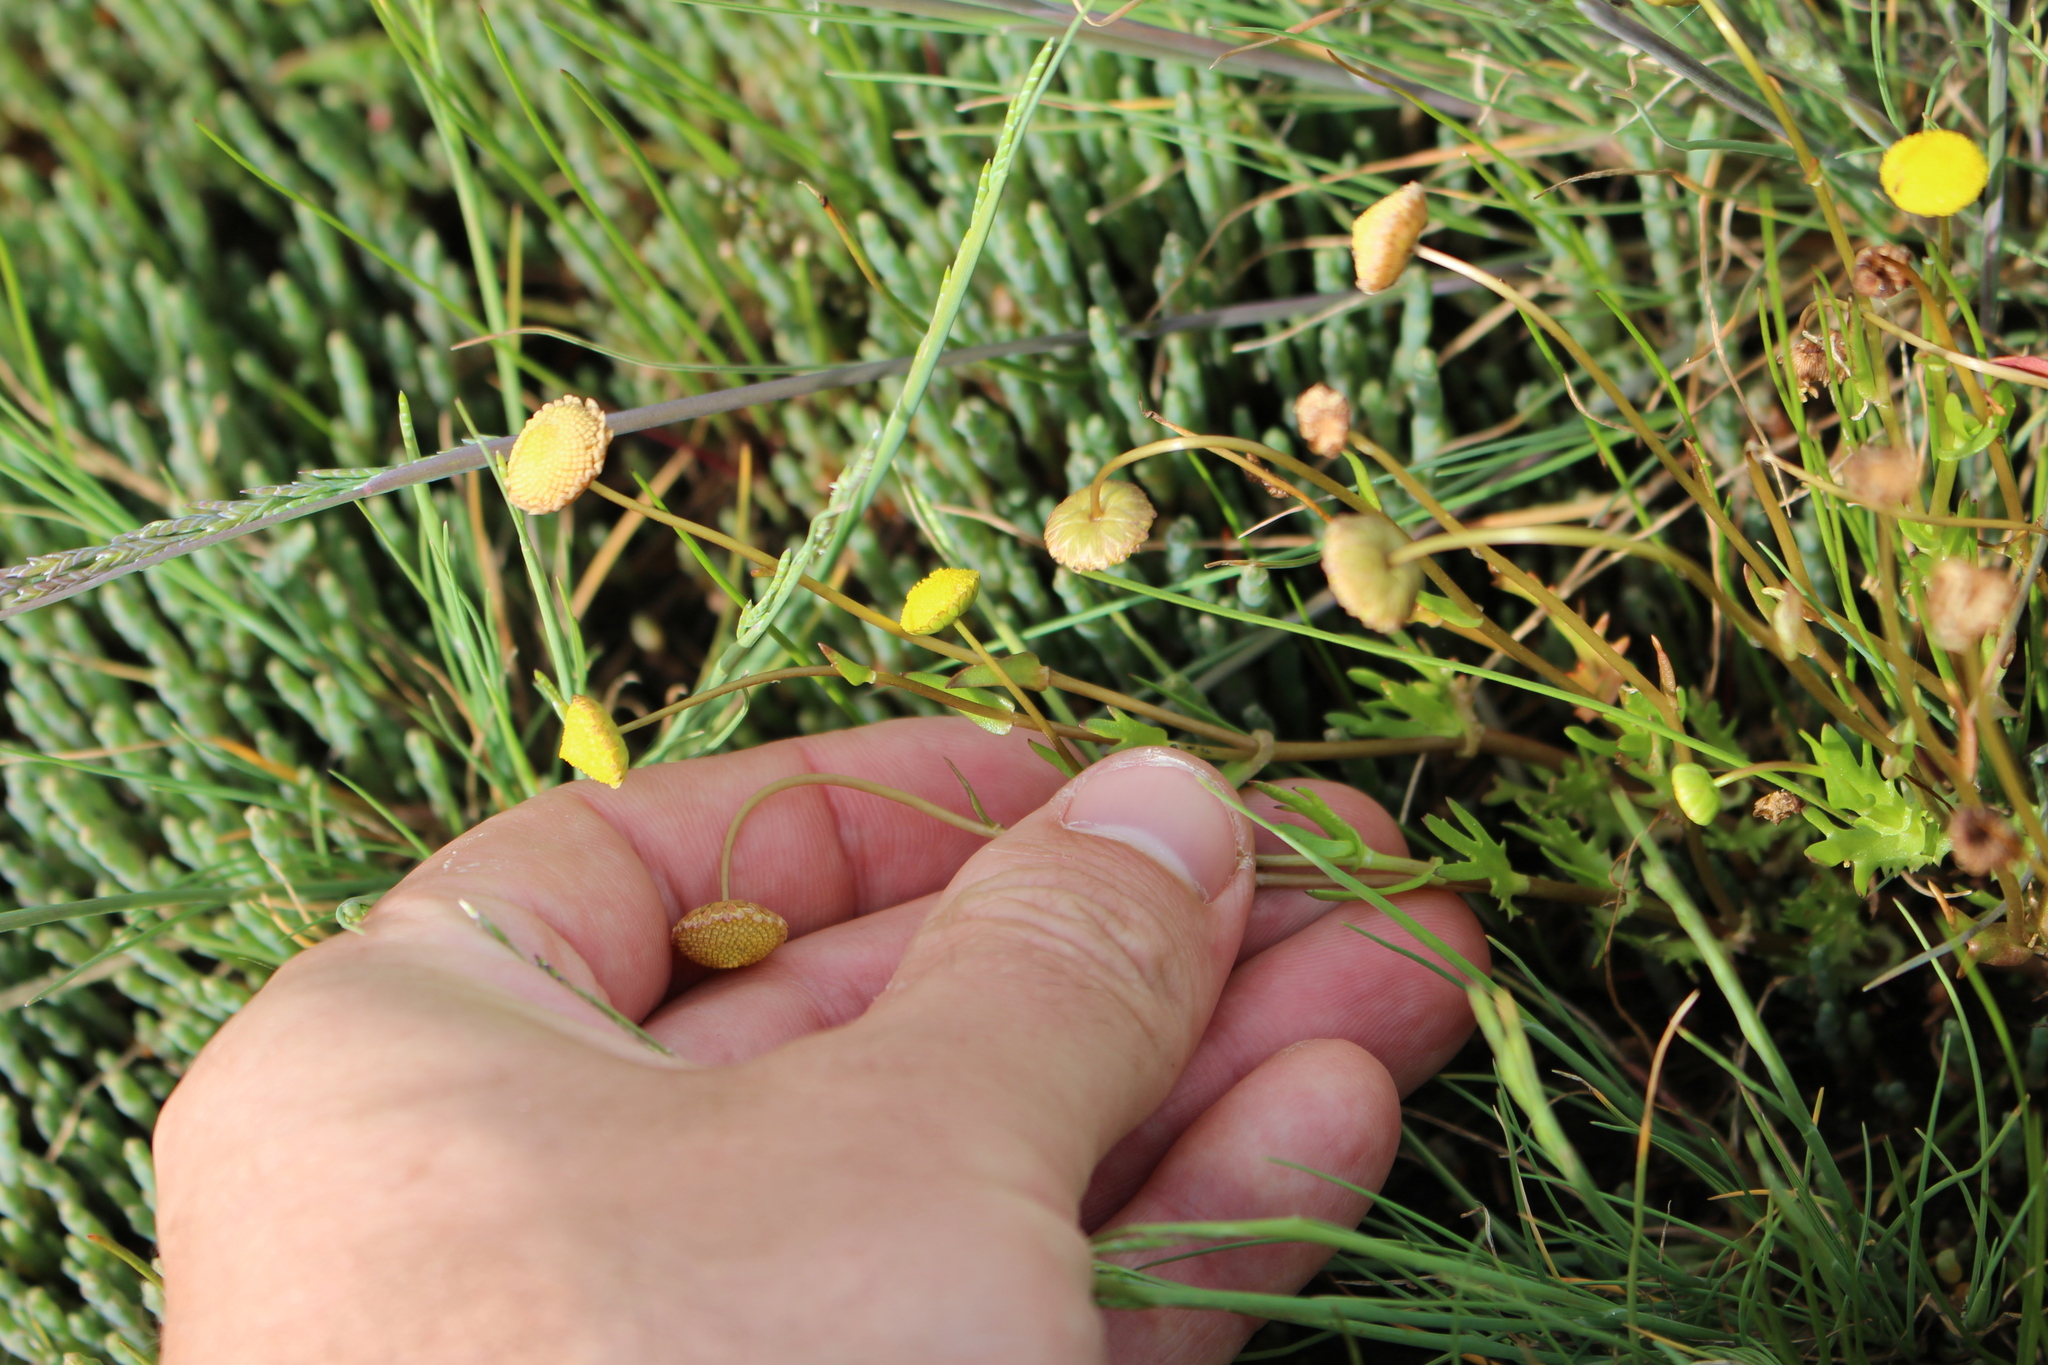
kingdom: Plantae
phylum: Tracheophyta
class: Magnoliopsida
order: Asterales
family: Asteraceae
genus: Cotula
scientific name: Cotula coronopifolia
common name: Buttonweed
